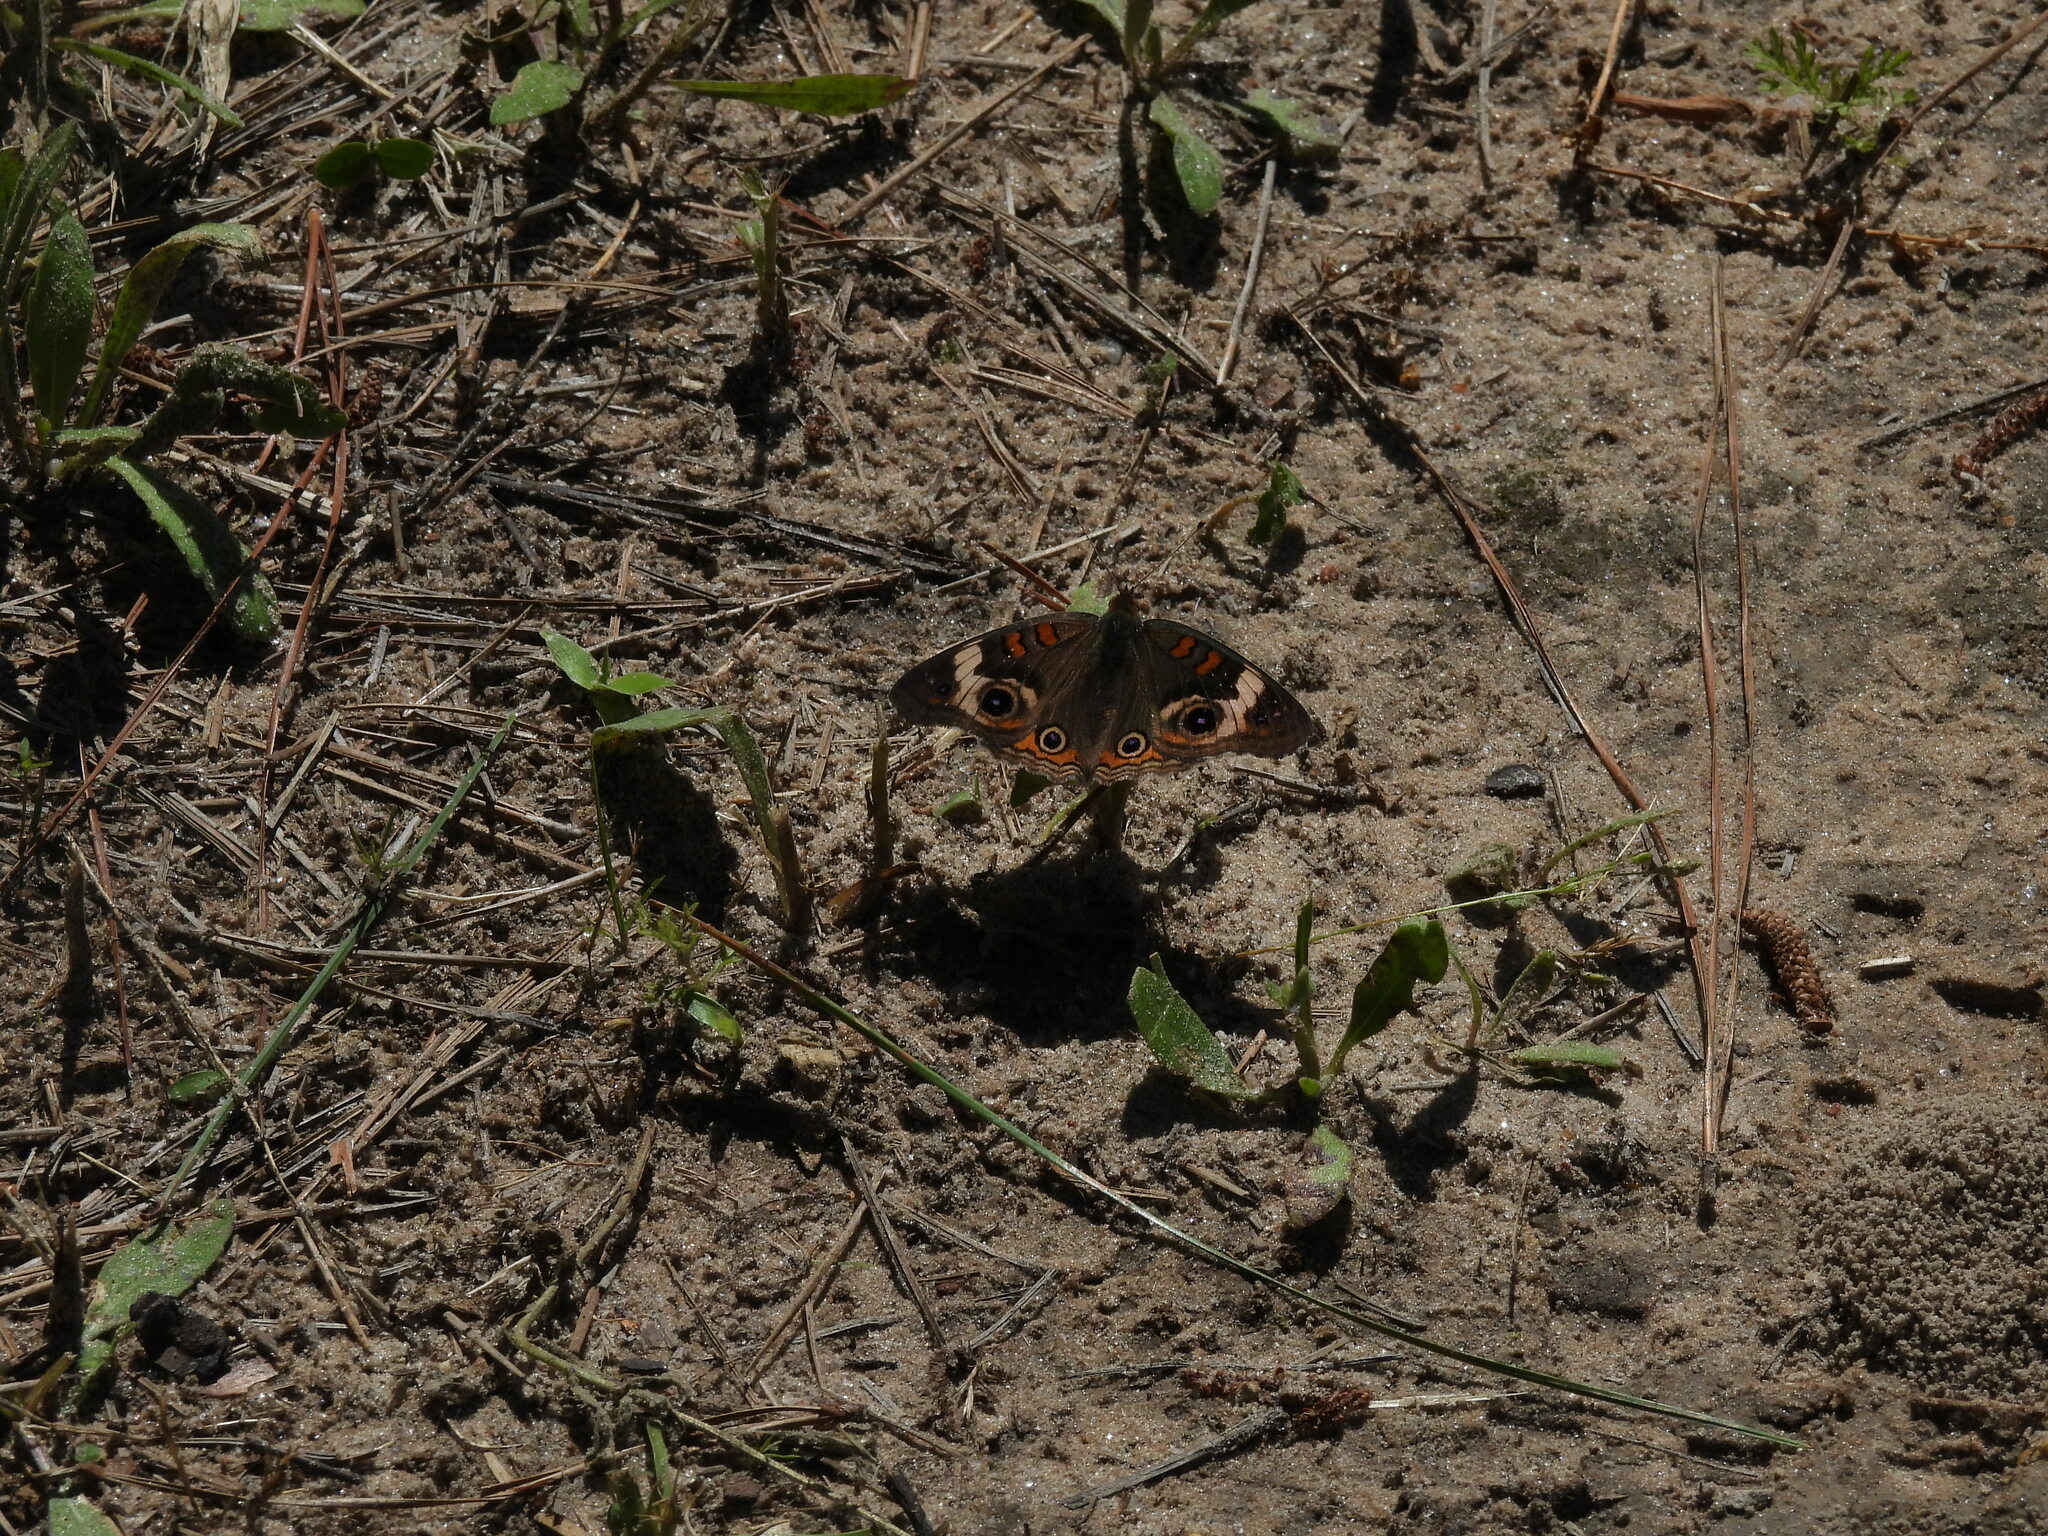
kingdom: Animalia
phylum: Arthropoda
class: Insecta
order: Lepidoptera
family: Nymphalidae
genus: Junonia
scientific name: Junonia coenia
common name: Common buckeye
